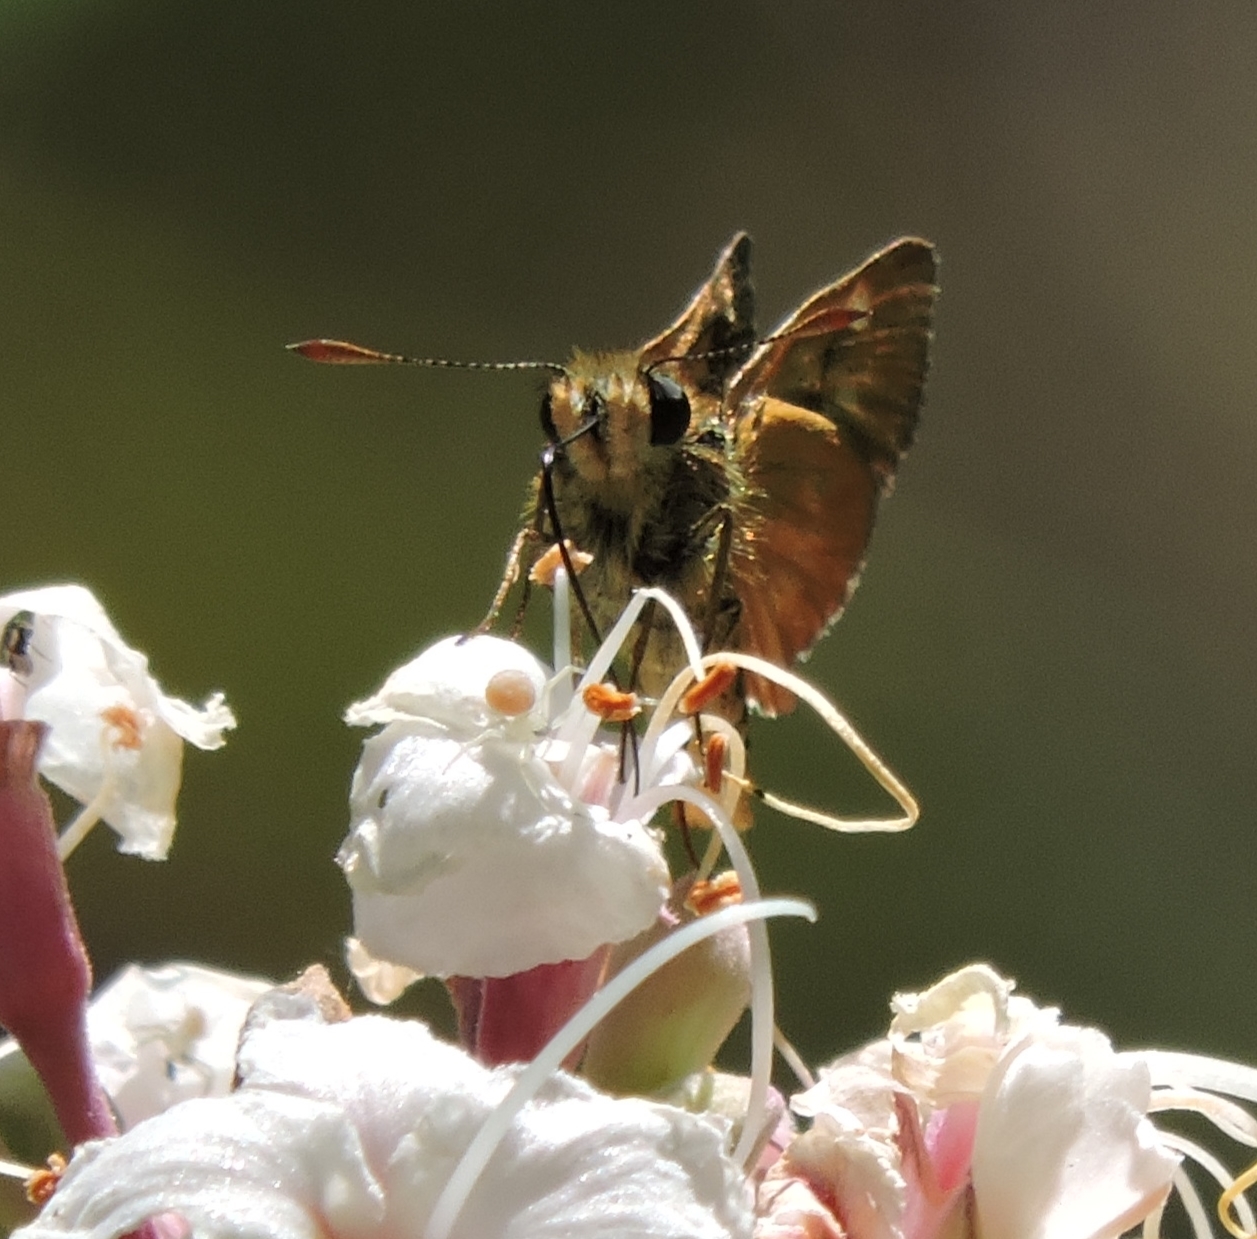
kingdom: Animalia
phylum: Arthropoda
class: Insecta
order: Lepidoptera
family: Hesperiidae
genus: Ochlodes
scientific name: Ochlodes agricola
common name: Rural skipper
